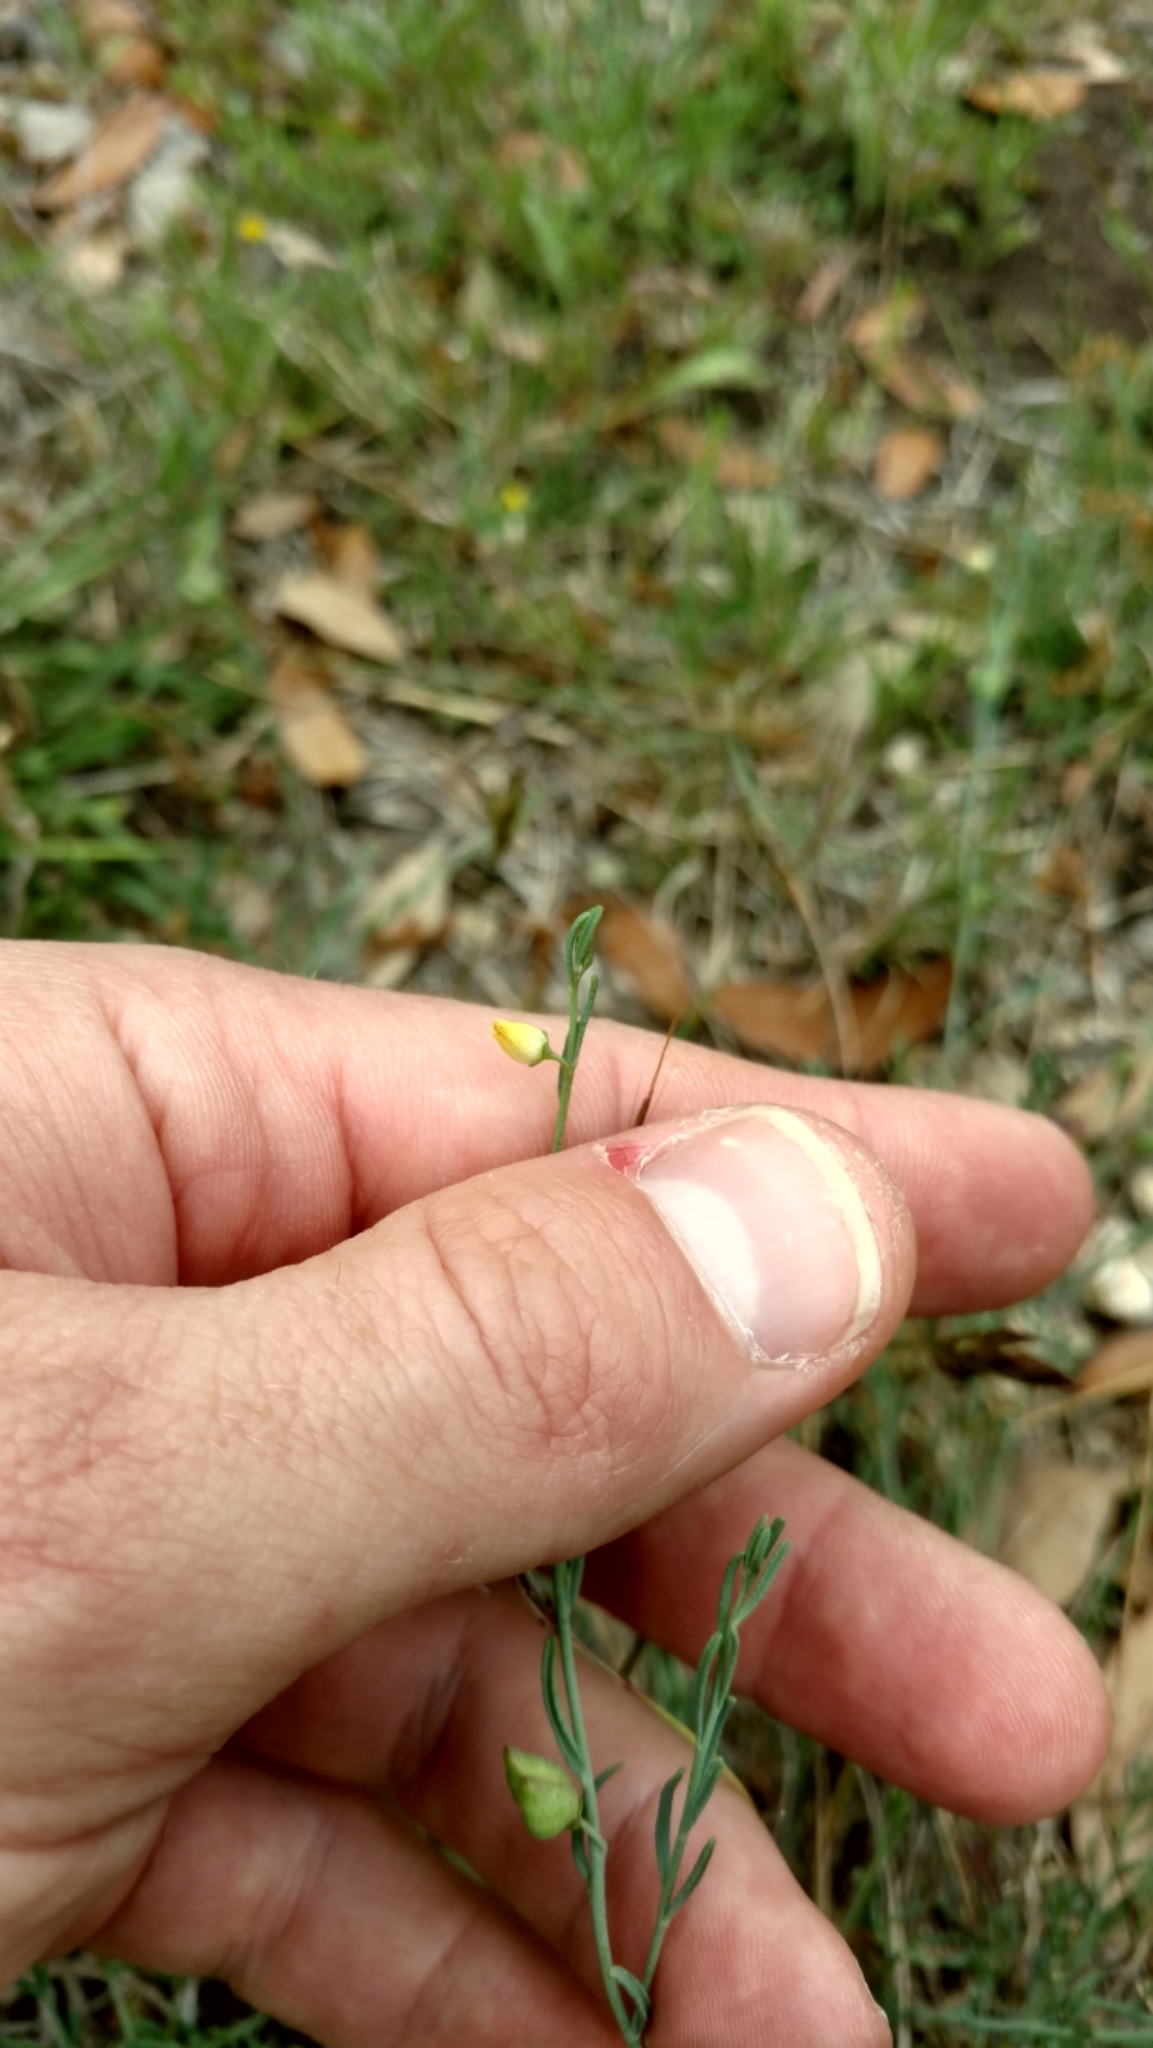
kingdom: Plantae
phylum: Tracheophyta
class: Magnoliopsida
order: Sapindales
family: Rutaceae
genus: Thamnosma
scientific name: Thamnosma texana
